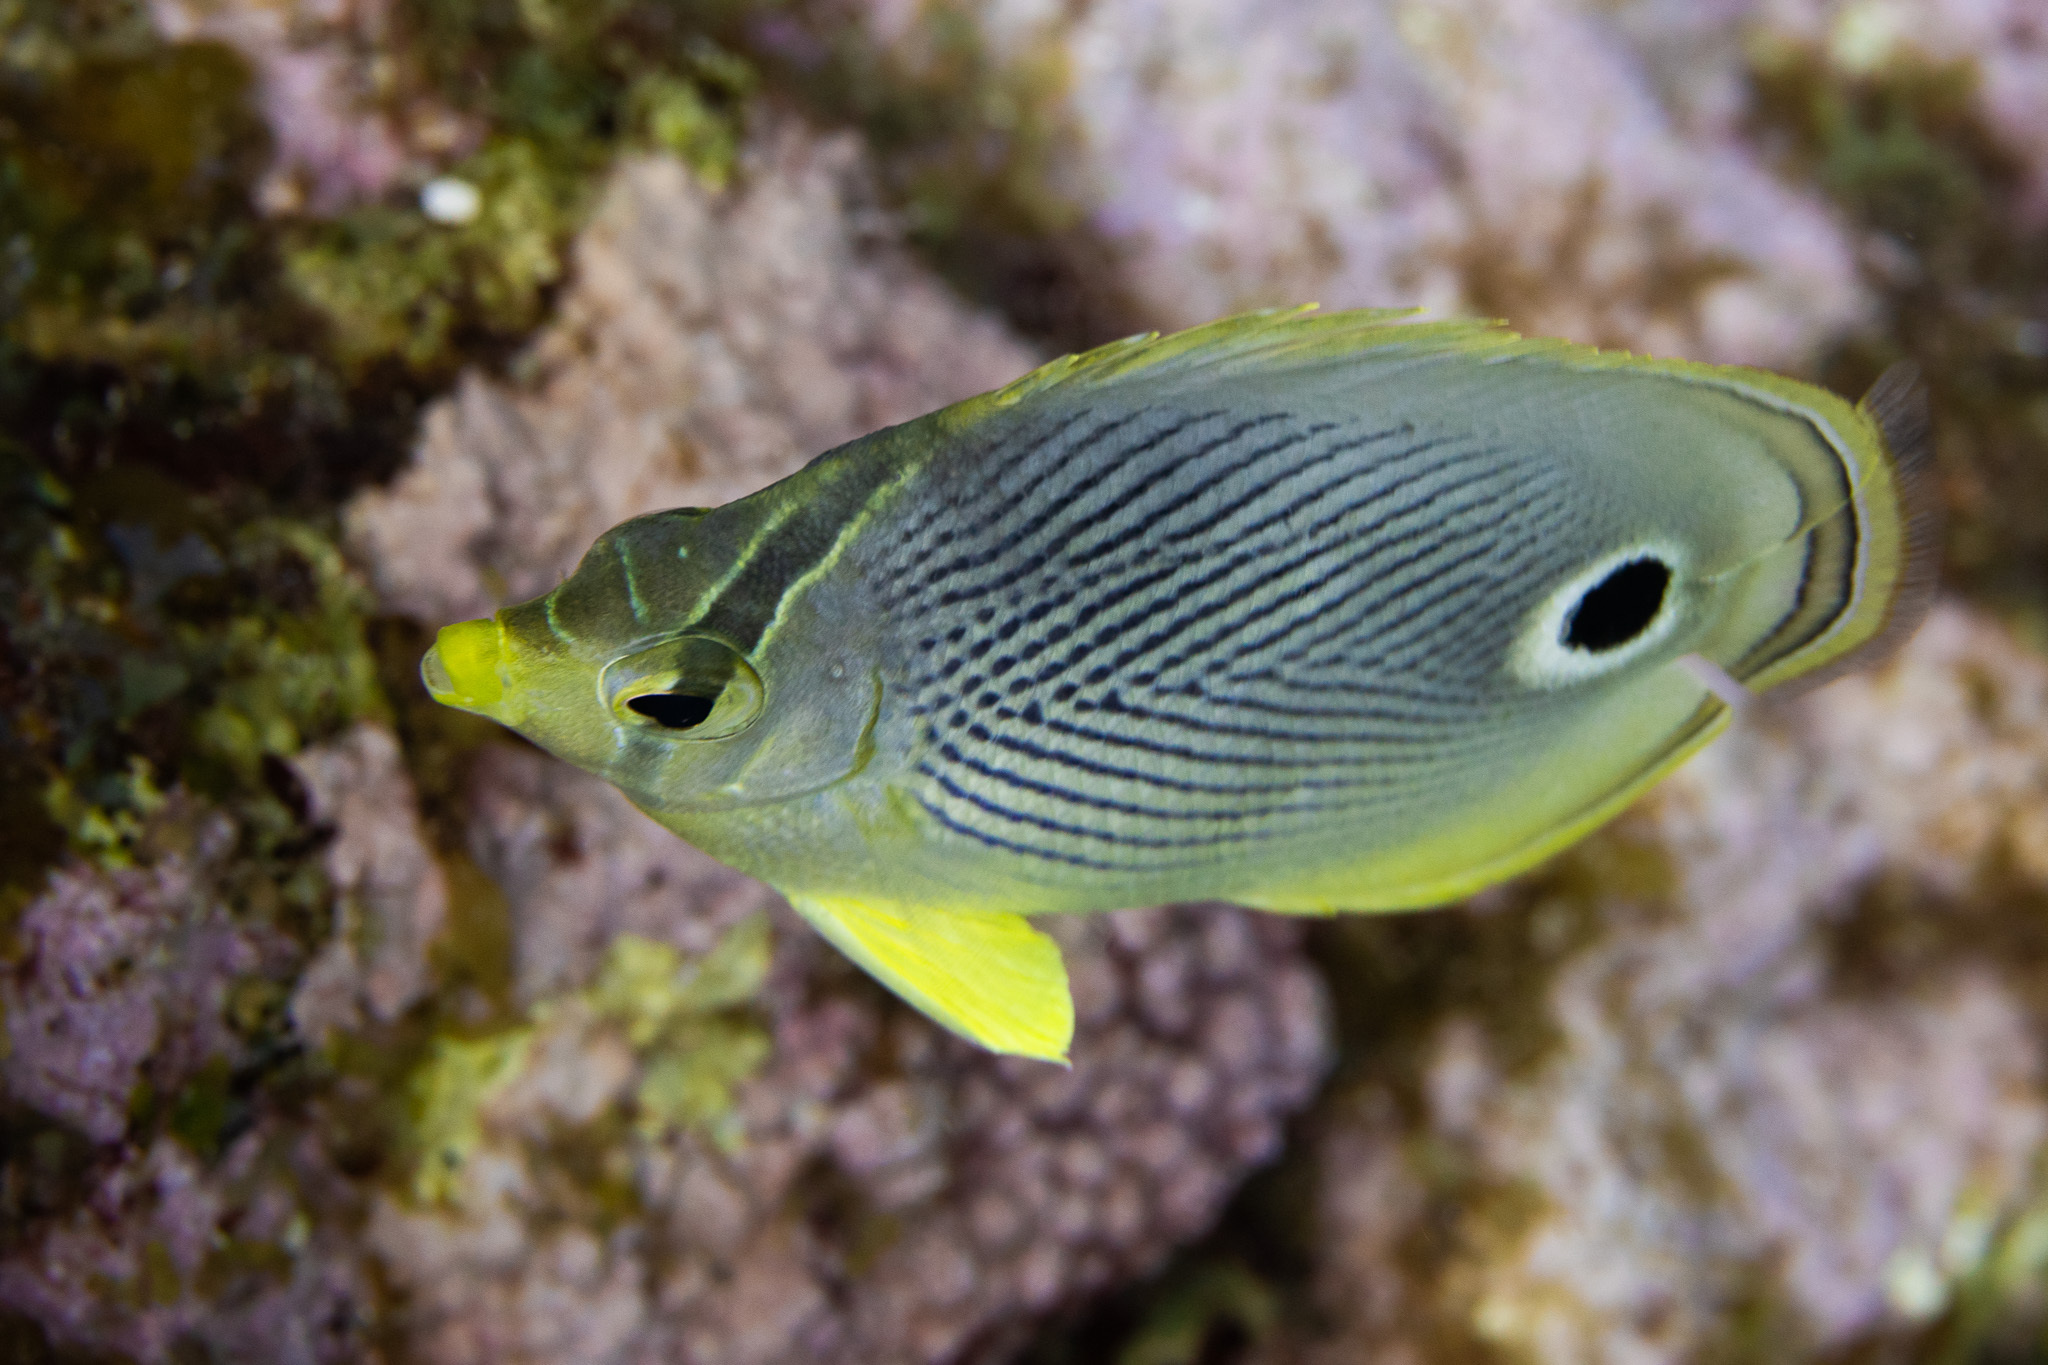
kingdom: Animalia
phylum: Chordata
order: Perciformes
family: Chaetodontidae
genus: Chaetodon
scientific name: Chaetodon capistratus
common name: Kete
